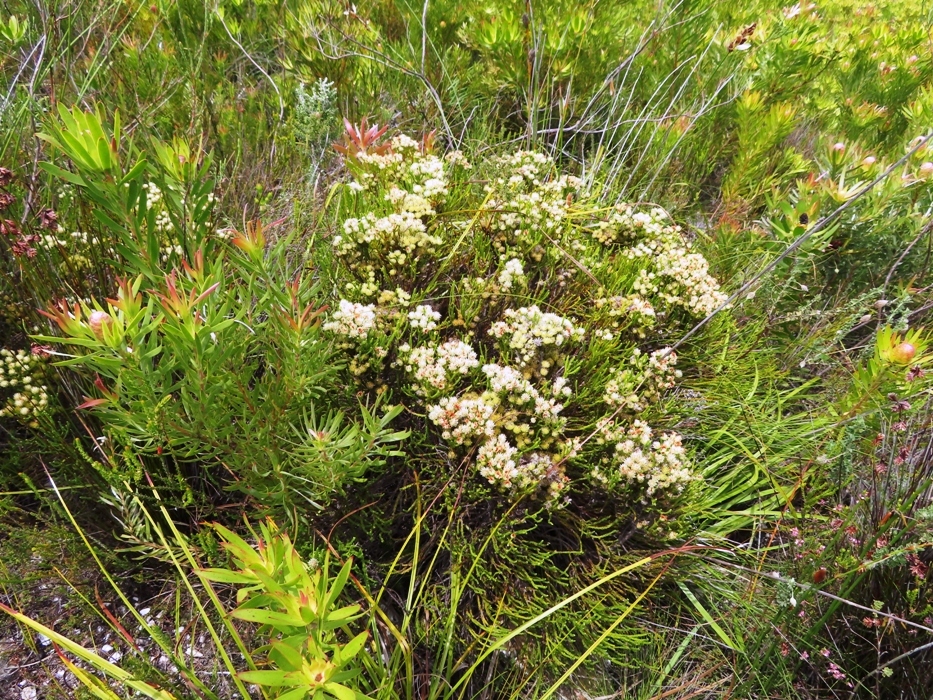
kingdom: Plantae
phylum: Tracheophyta
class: Magnoliopsida
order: Bruniales
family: Bruniaceae
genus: Brunia
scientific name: Brunia paleacea
